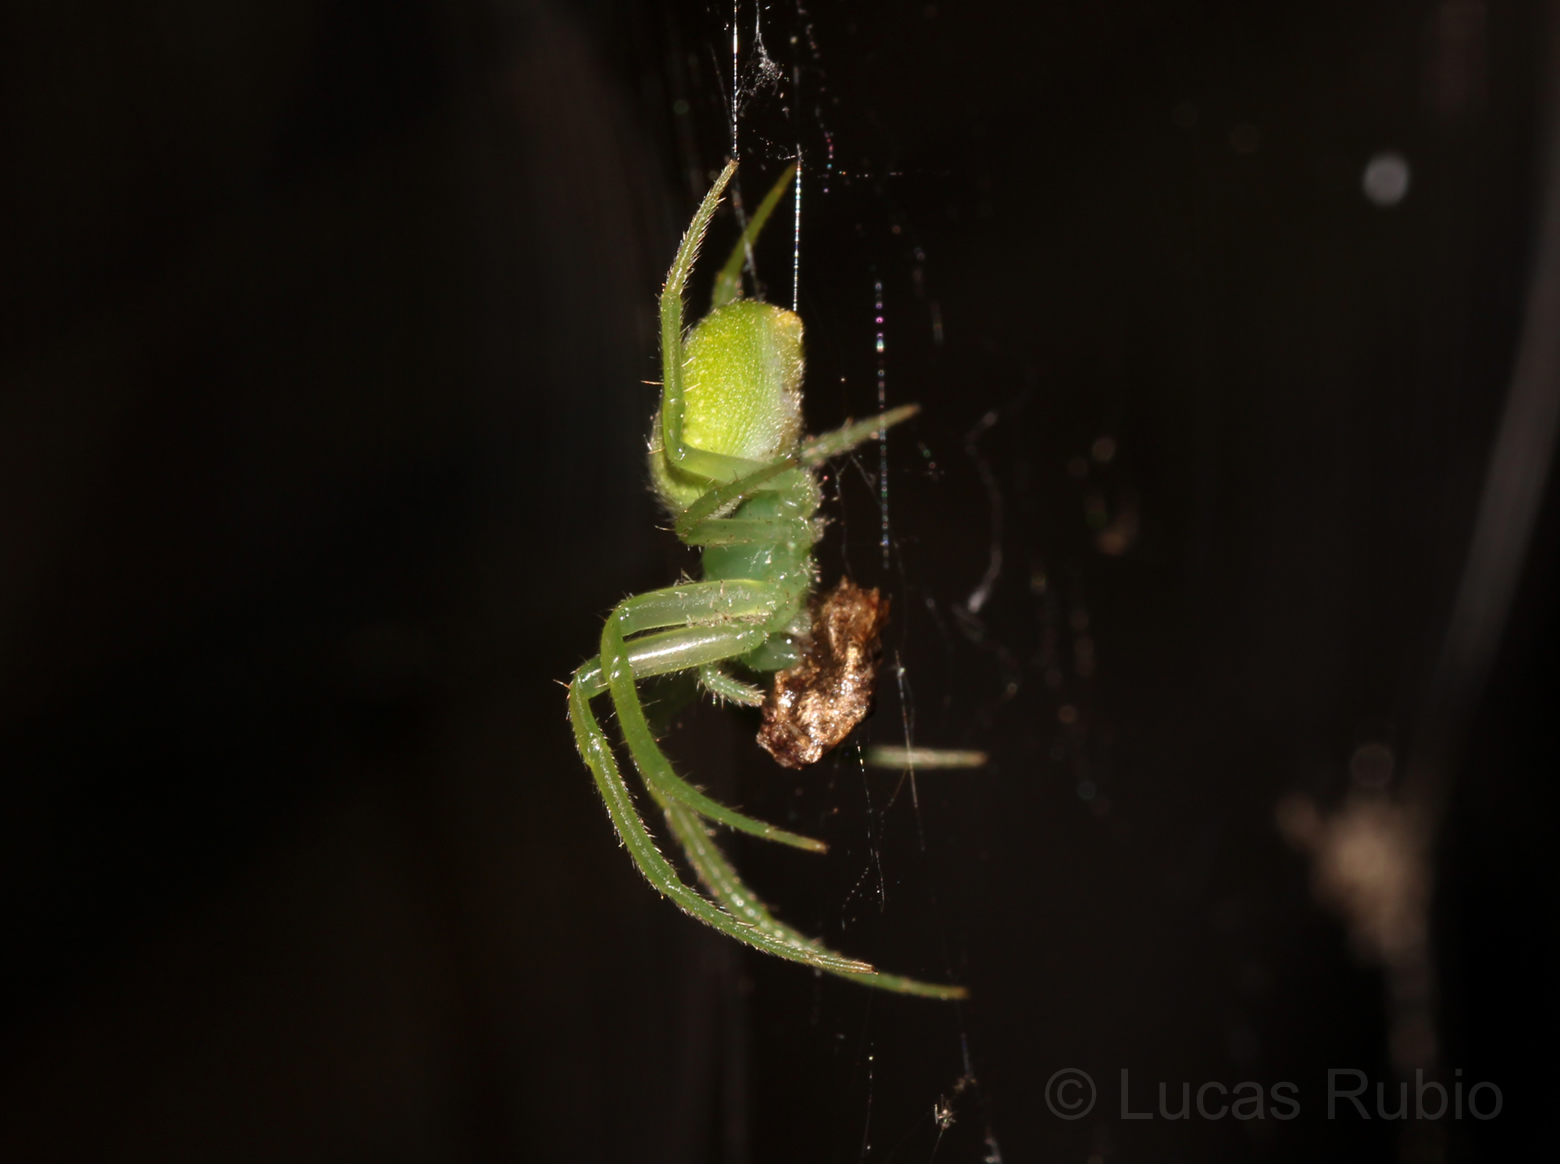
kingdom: Animalia
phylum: Arthropoda
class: Arachnida
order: Araneae
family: Araneidae
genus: Araneus
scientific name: Araneus uniformis
